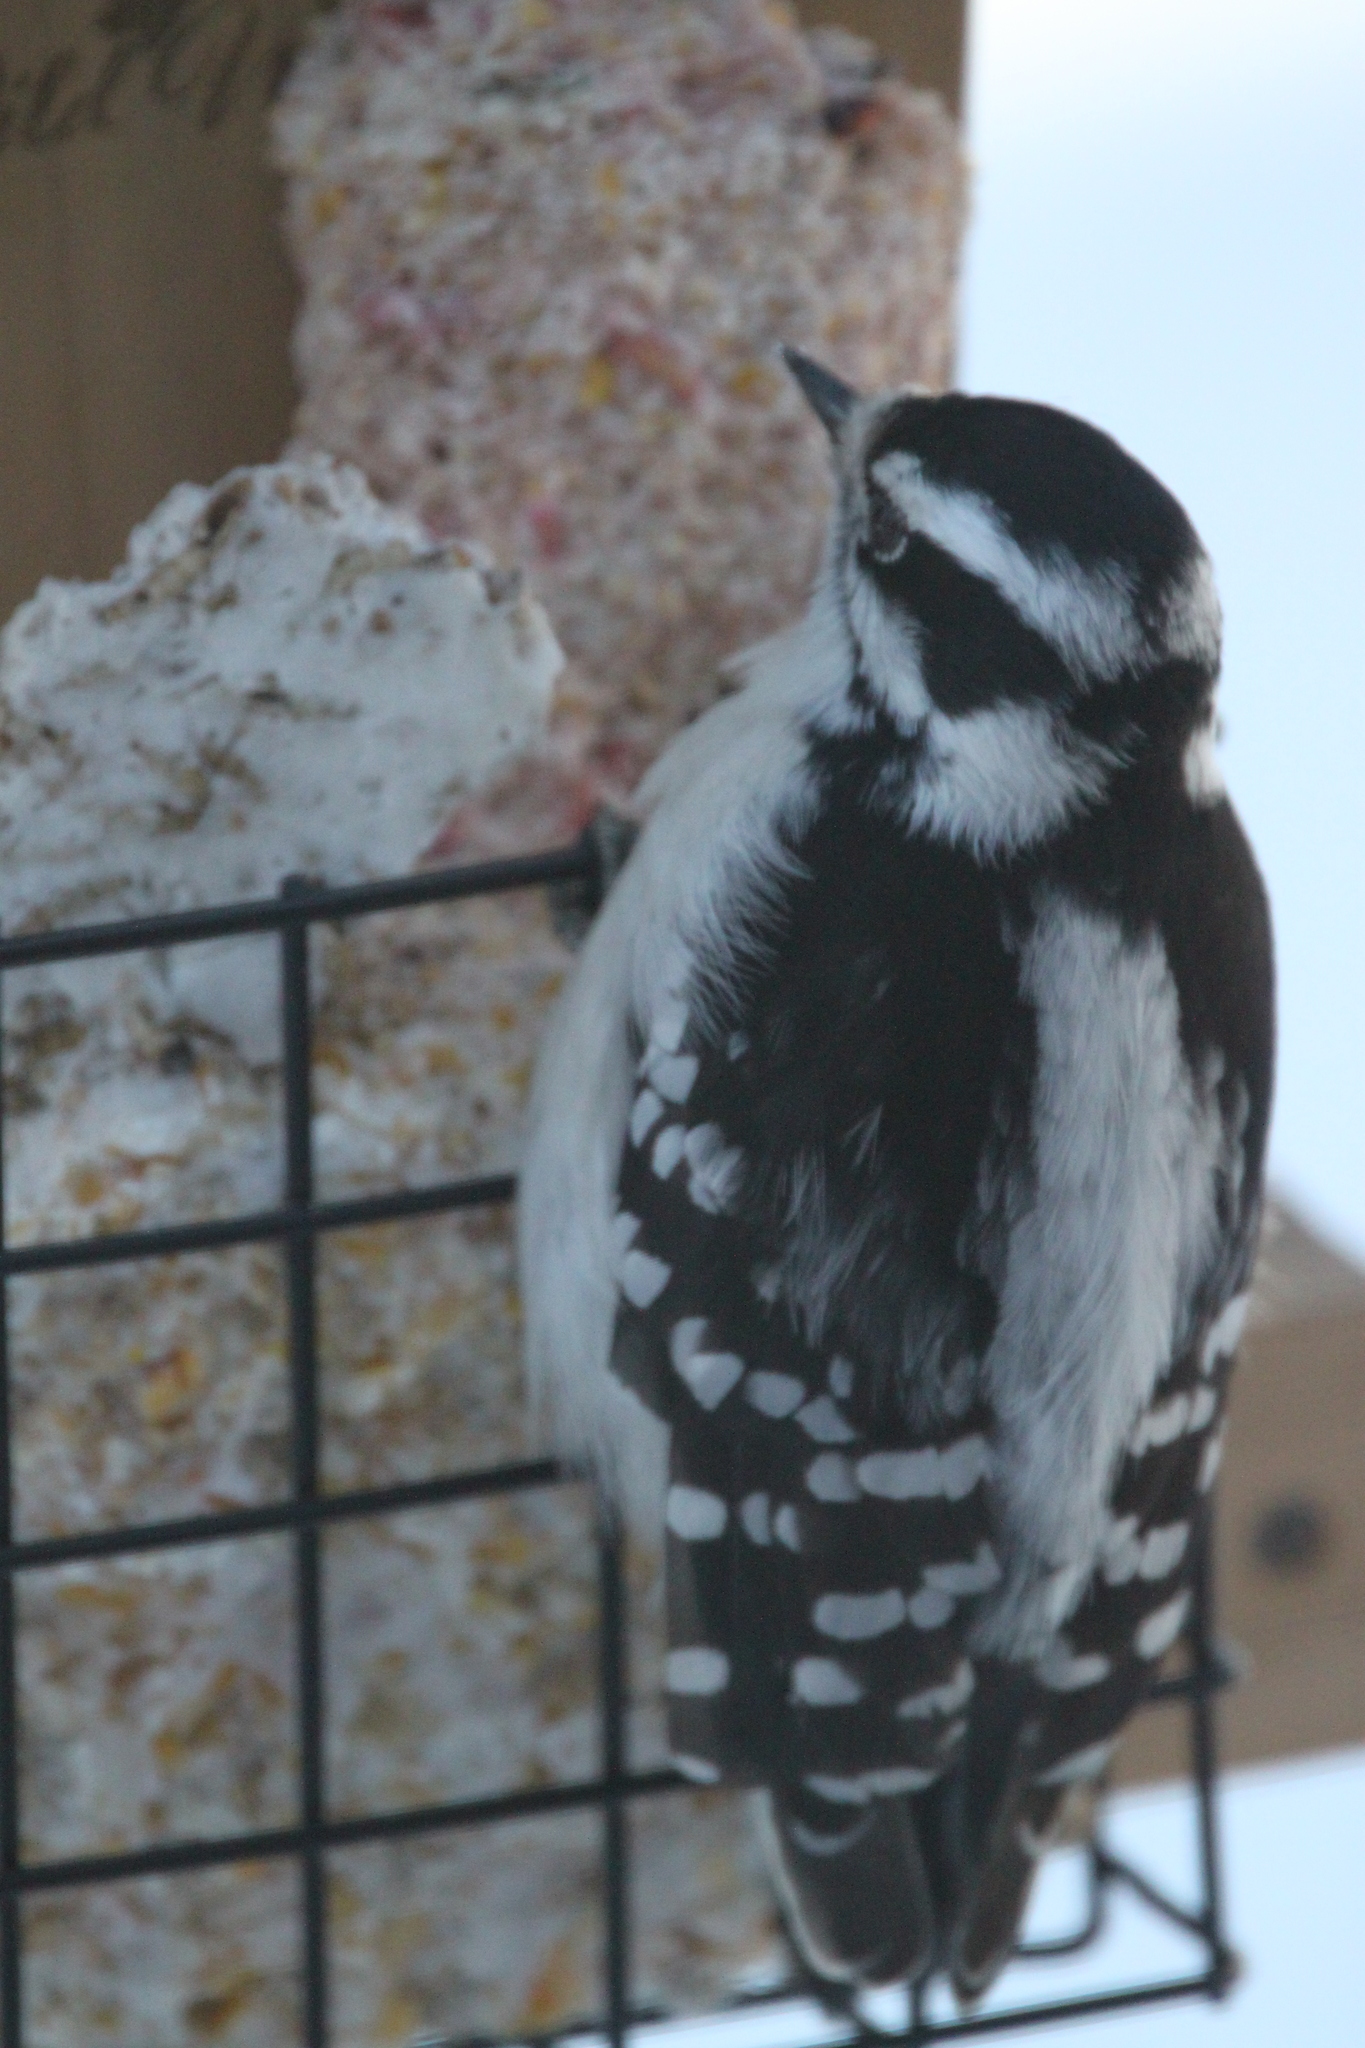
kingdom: Animalia
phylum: Chordata
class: Aves
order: Piciformes
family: Picidae
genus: Dryobates
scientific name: Dryobates pubescens
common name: Downy woodpecker
